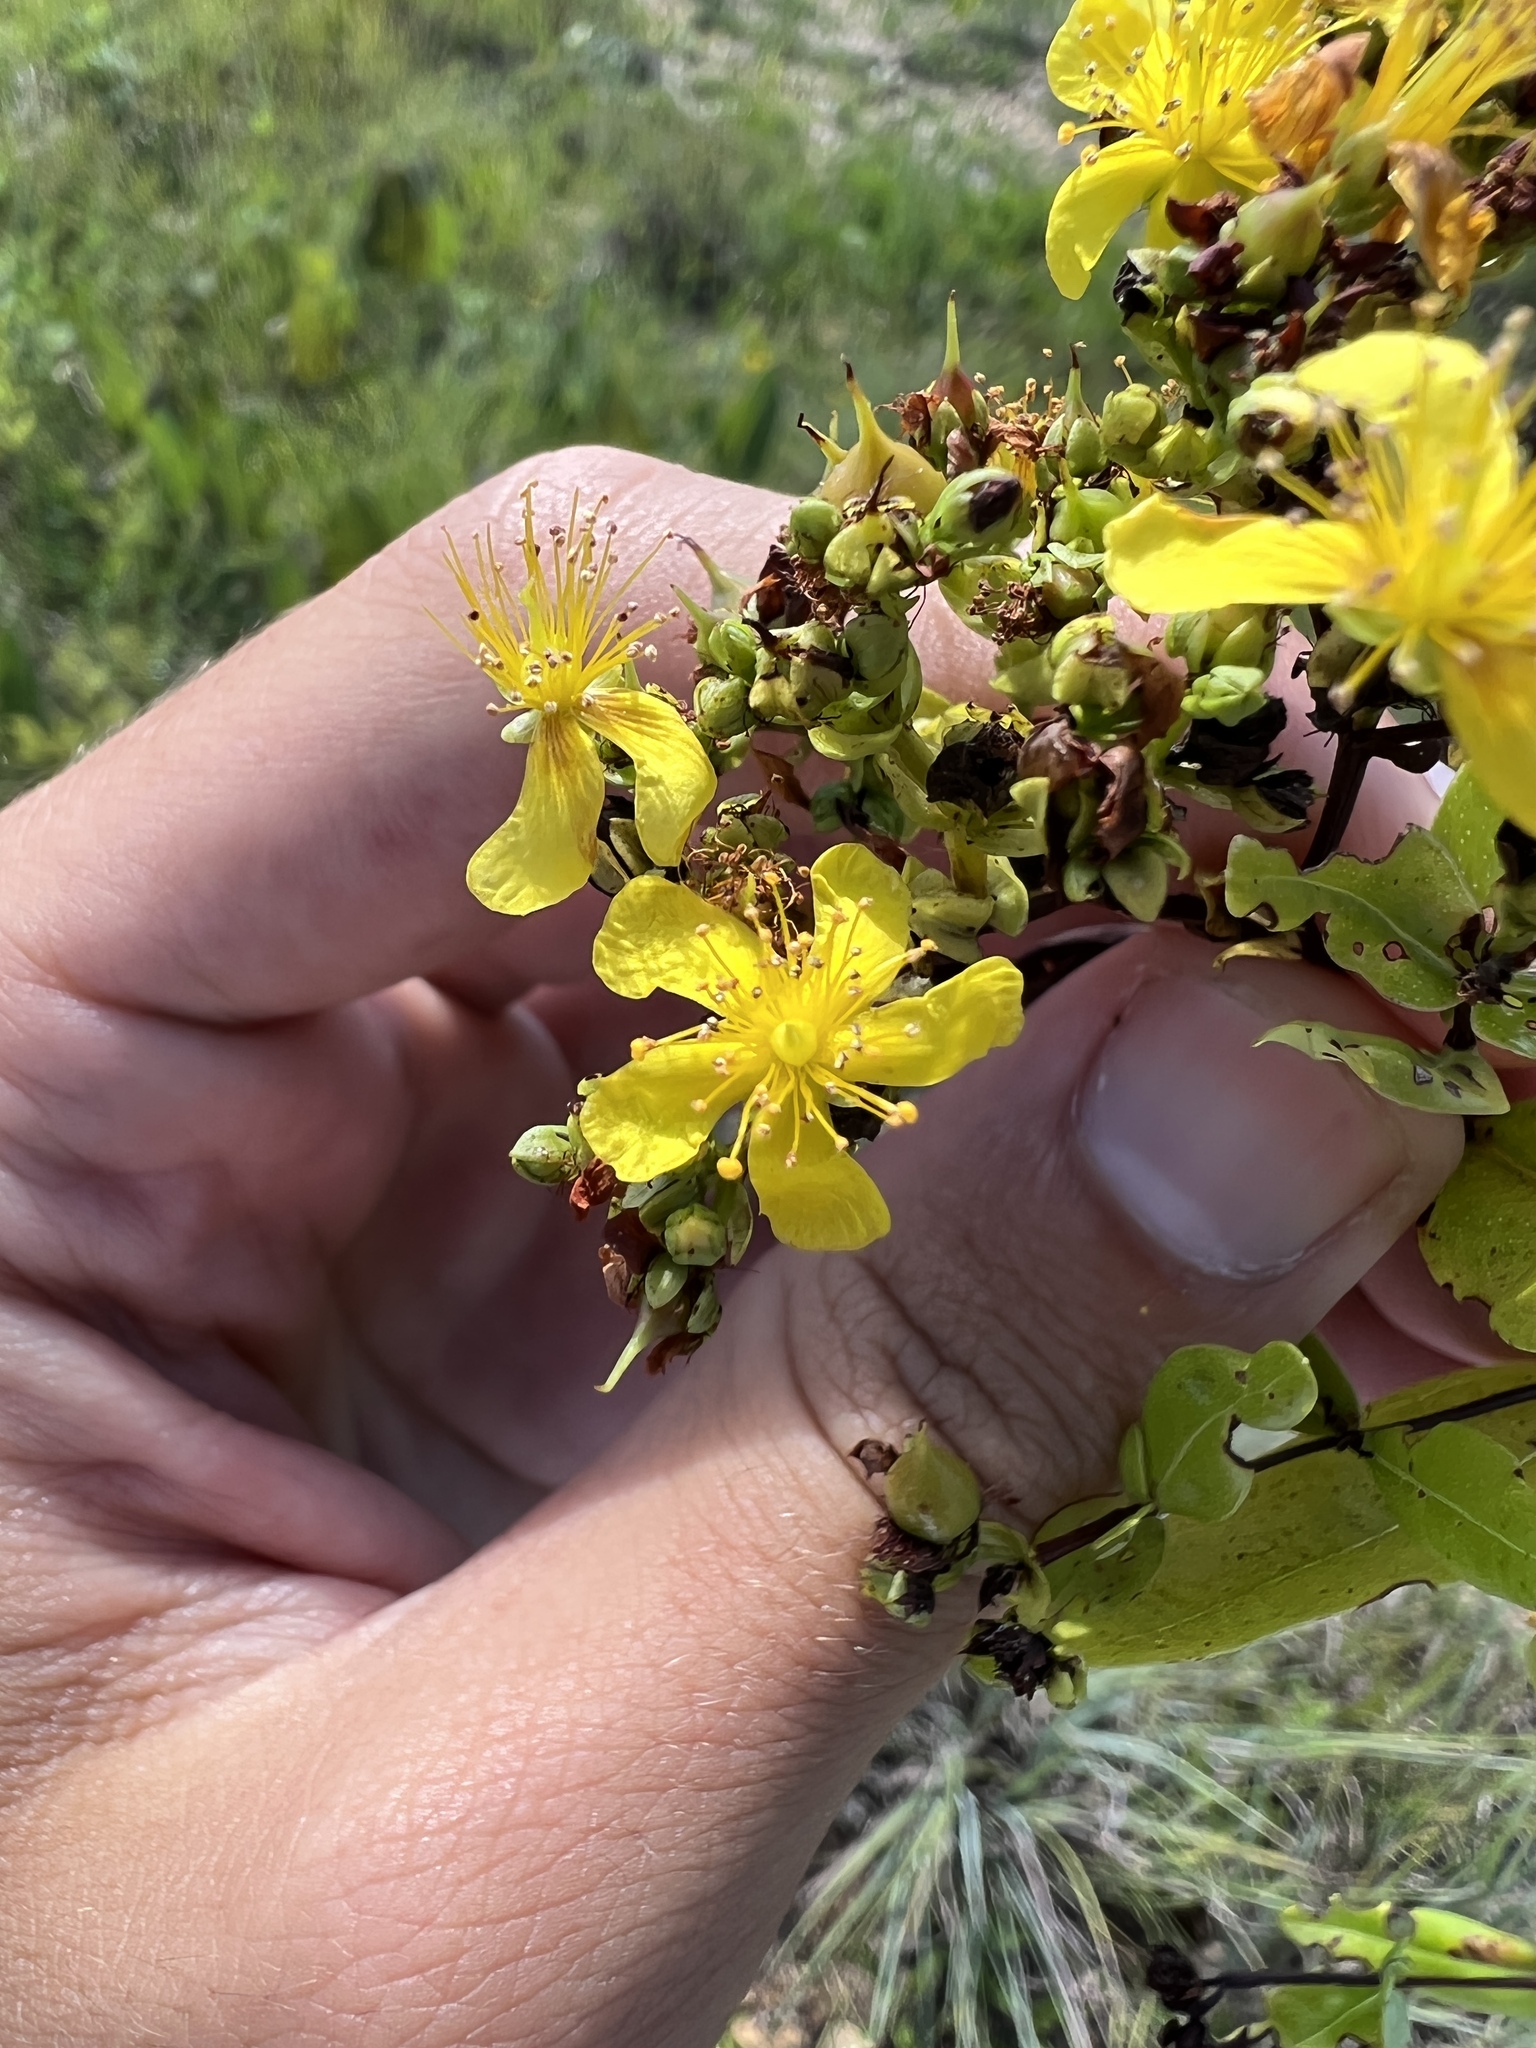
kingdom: Plantae
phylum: Tracheophyta
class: Magnoliopsida
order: Malpighiales
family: Hypericaceae
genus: Hypericum
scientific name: Hypericum sphaerocarpum
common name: Round-fruited st. john's-wort
